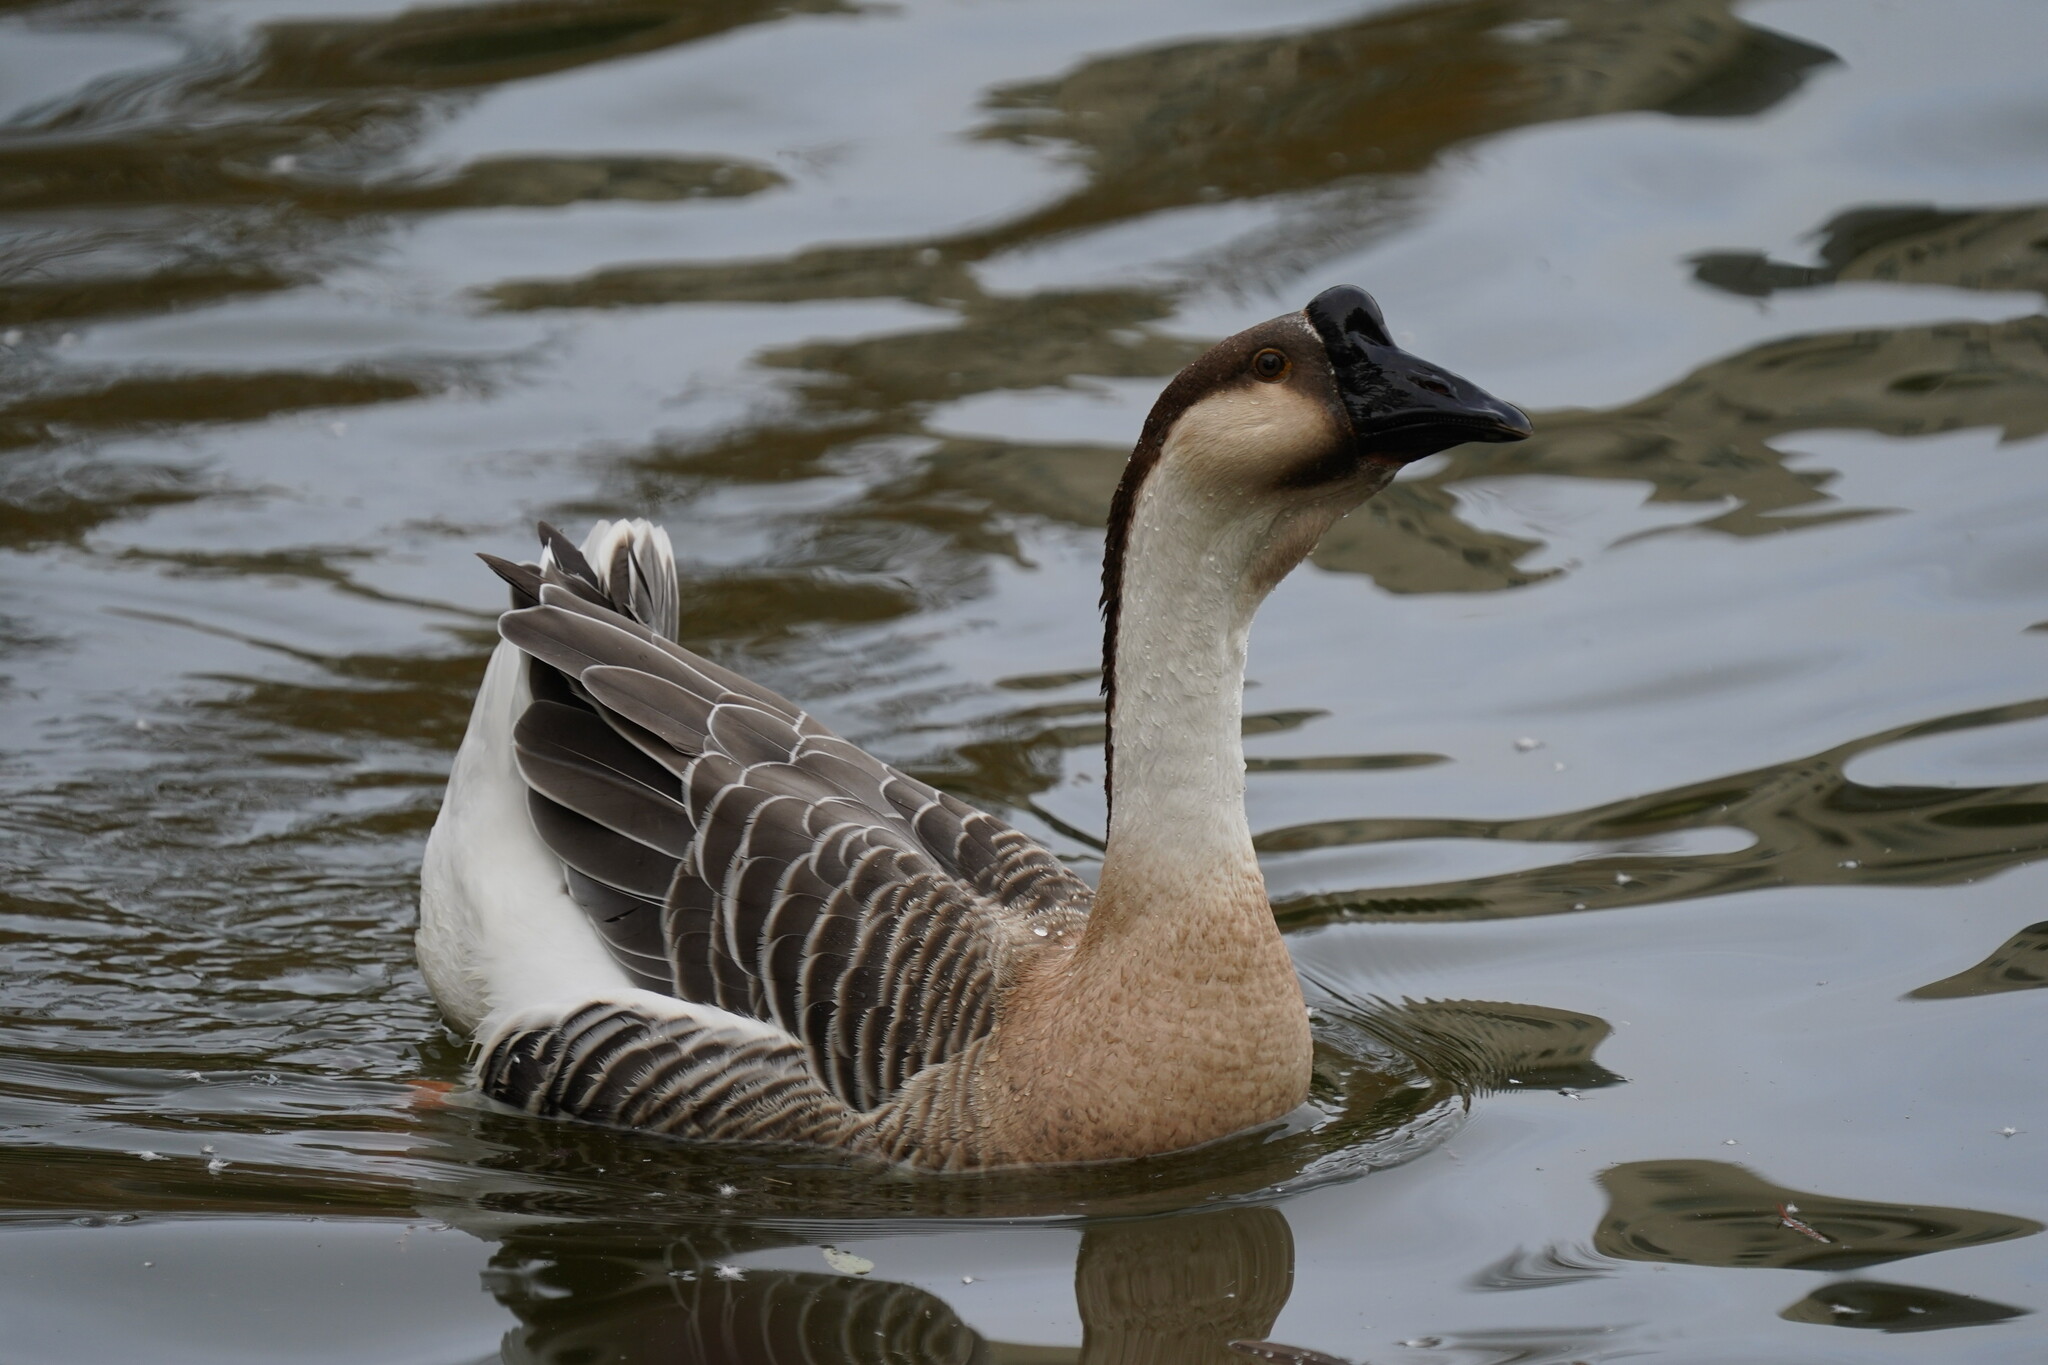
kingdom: Animalia
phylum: Chordata
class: Aves
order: Anseriformes
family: Anatidae
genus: Anser
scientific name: Anser cygnoides
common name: Swan goose
